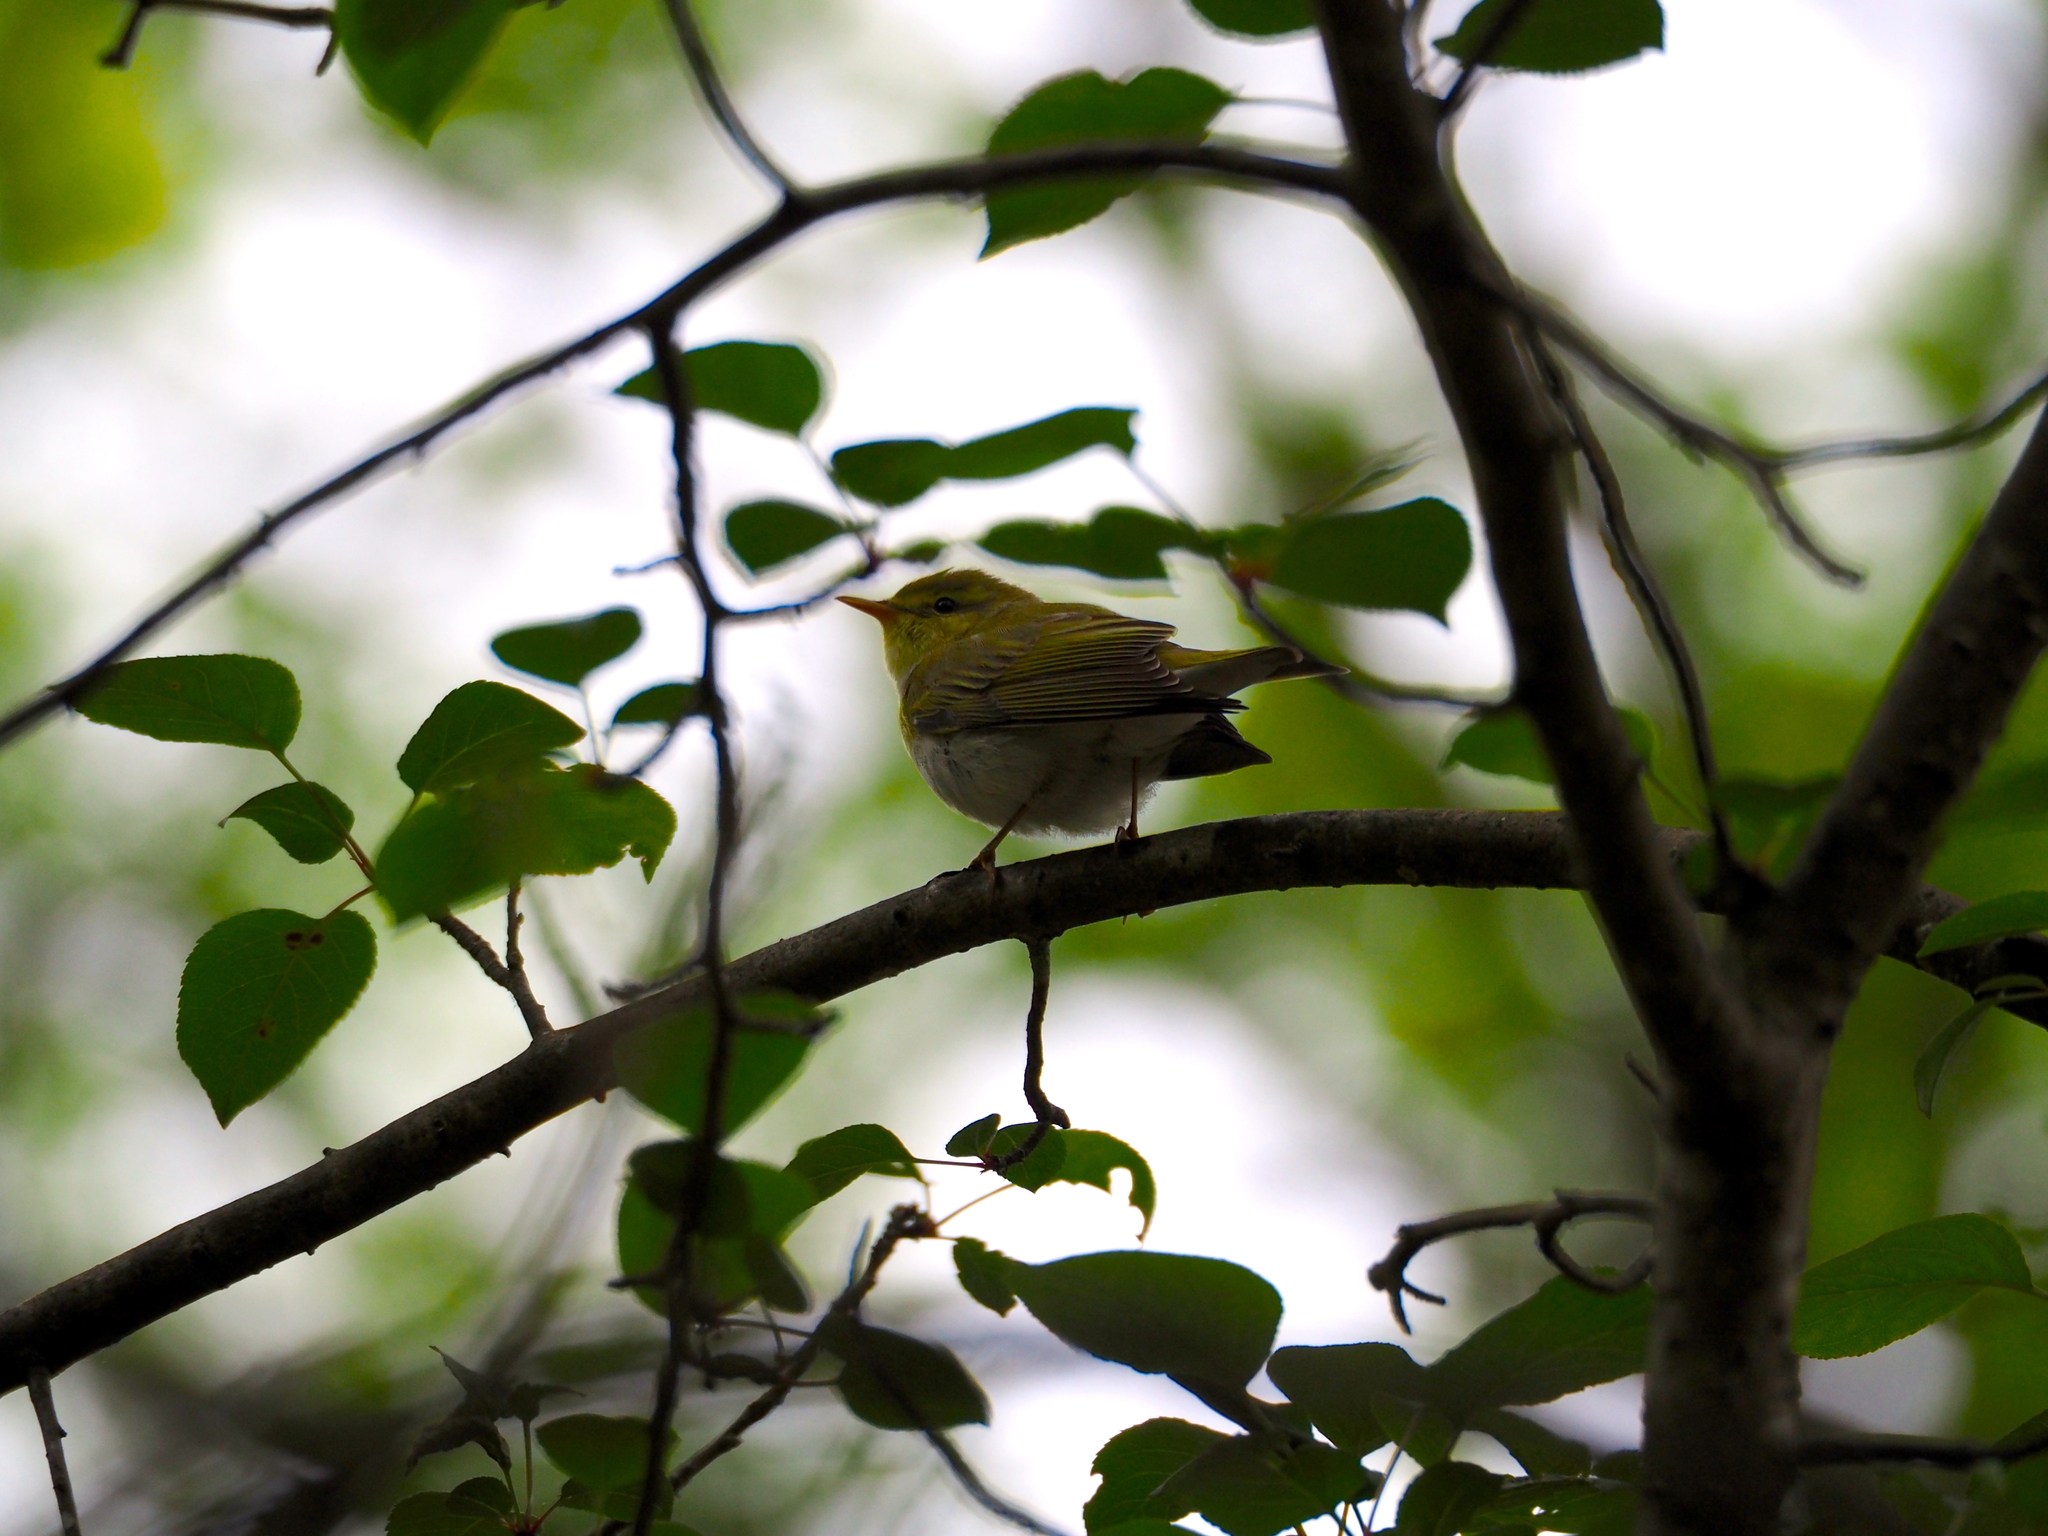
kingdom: Animalia
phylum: Chordata
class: Aves
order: Passeriformes
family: Phylloscopidae
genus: Phylloscopus
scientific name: Phylloscopus sibillatrix
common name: Wood warbler
